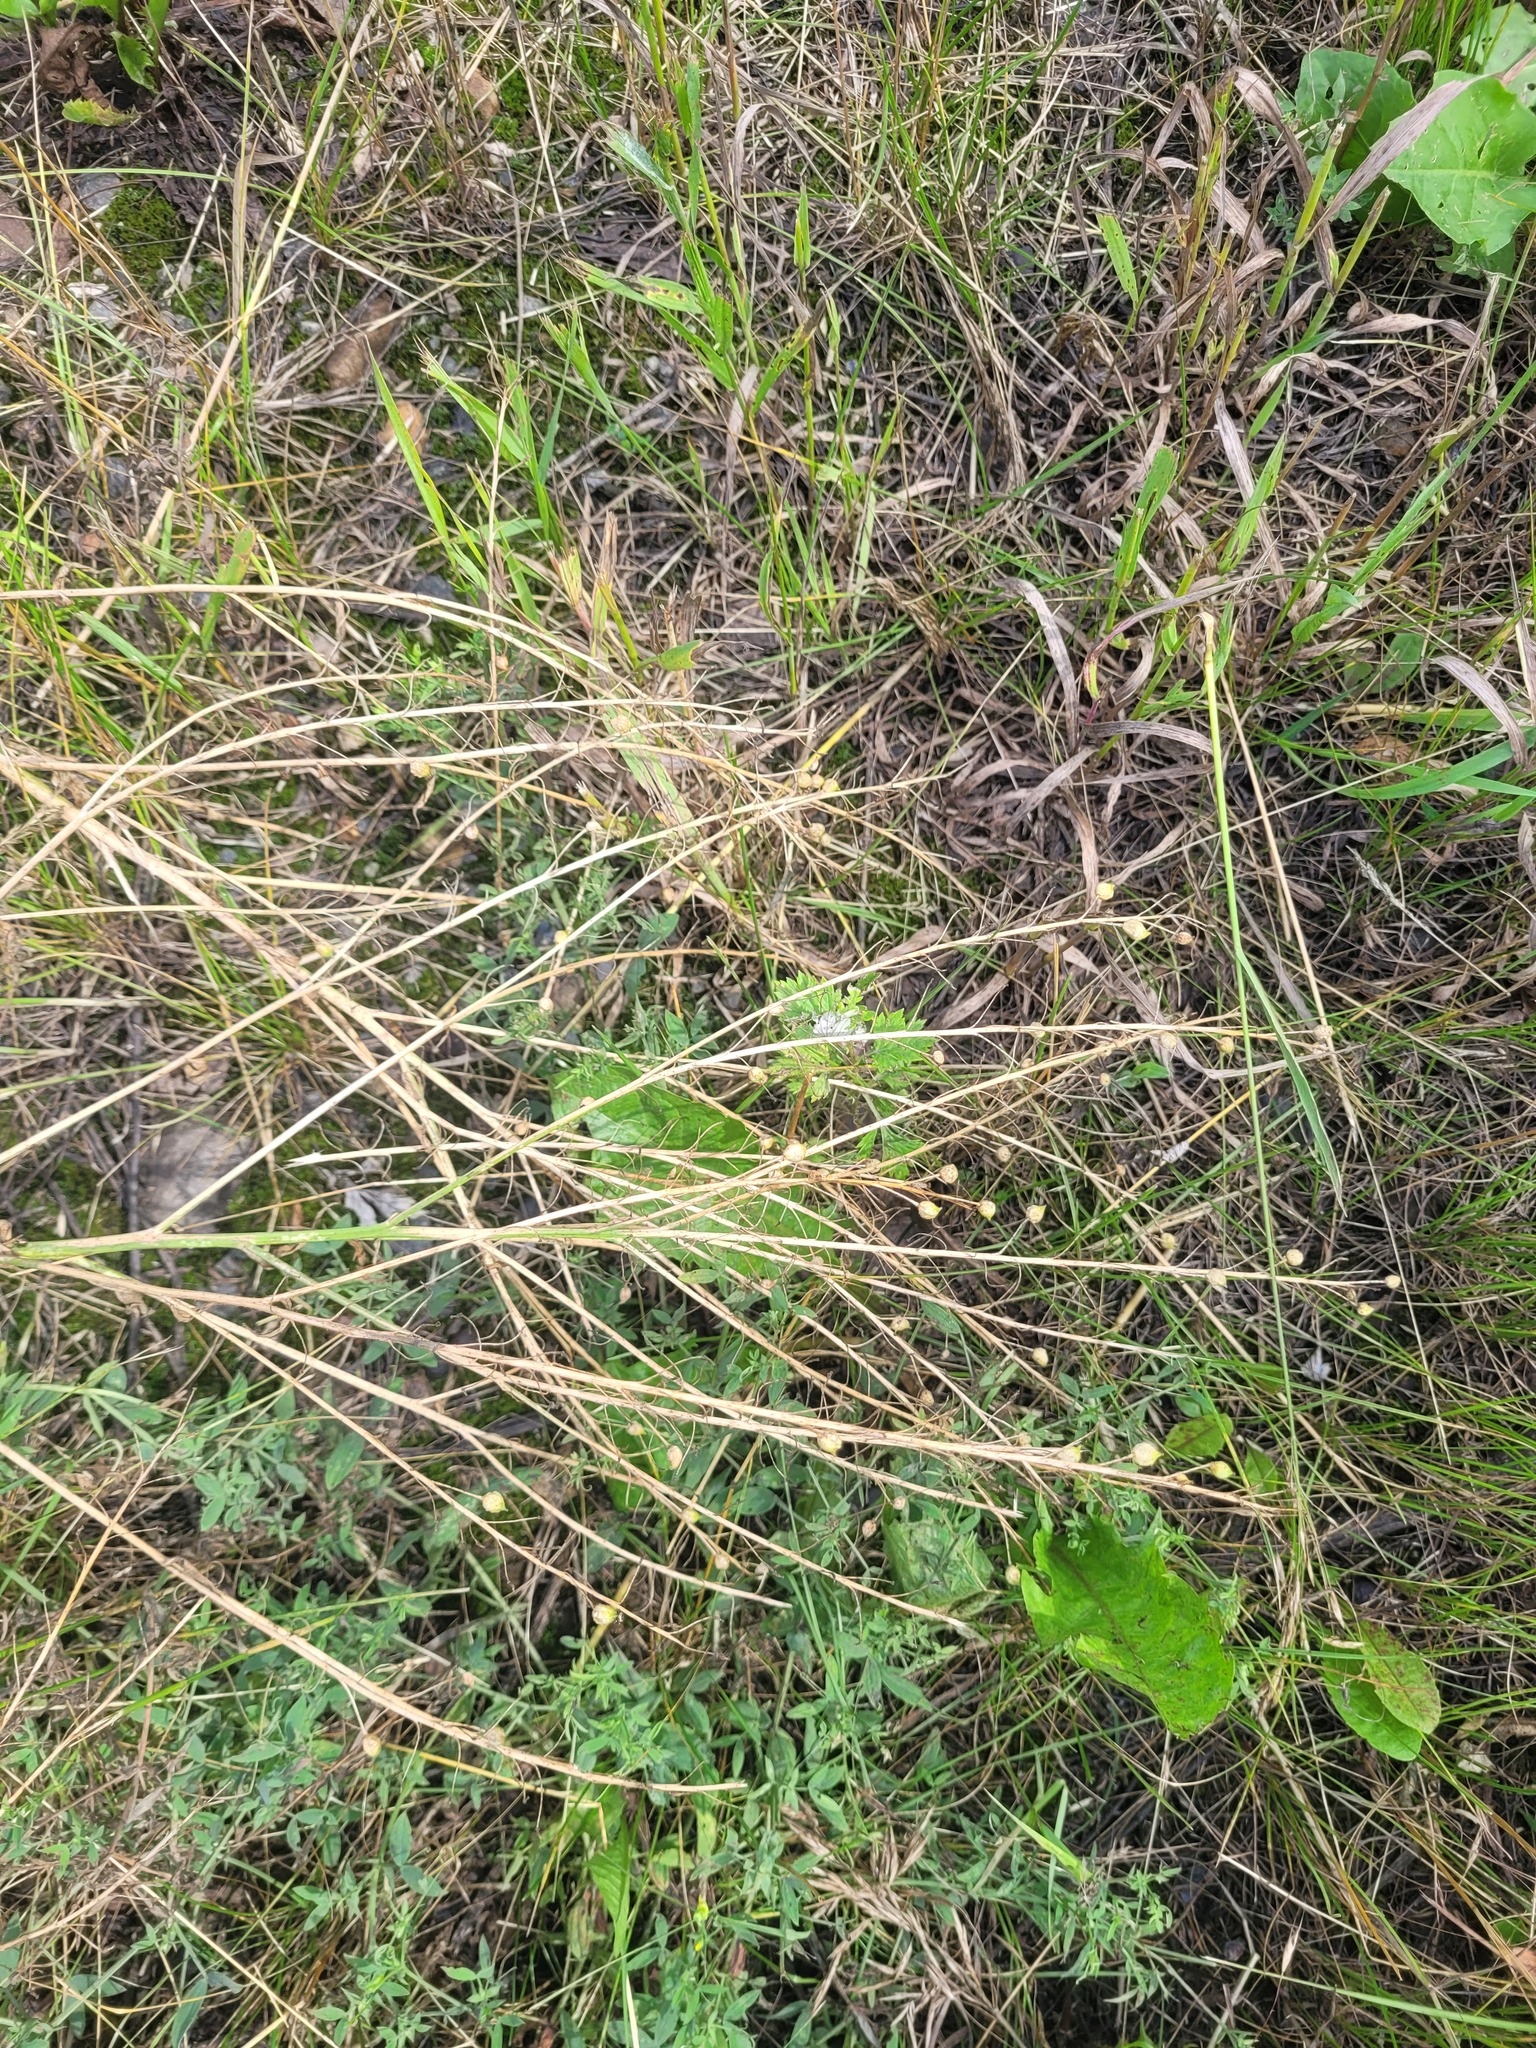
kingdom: Plantae
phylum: Tracheophyta
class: Magnoliopsida
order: Brassicales
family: Brassicaceae
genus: Bunias
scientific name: Bunias orientalis
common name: Warty-cabbage
